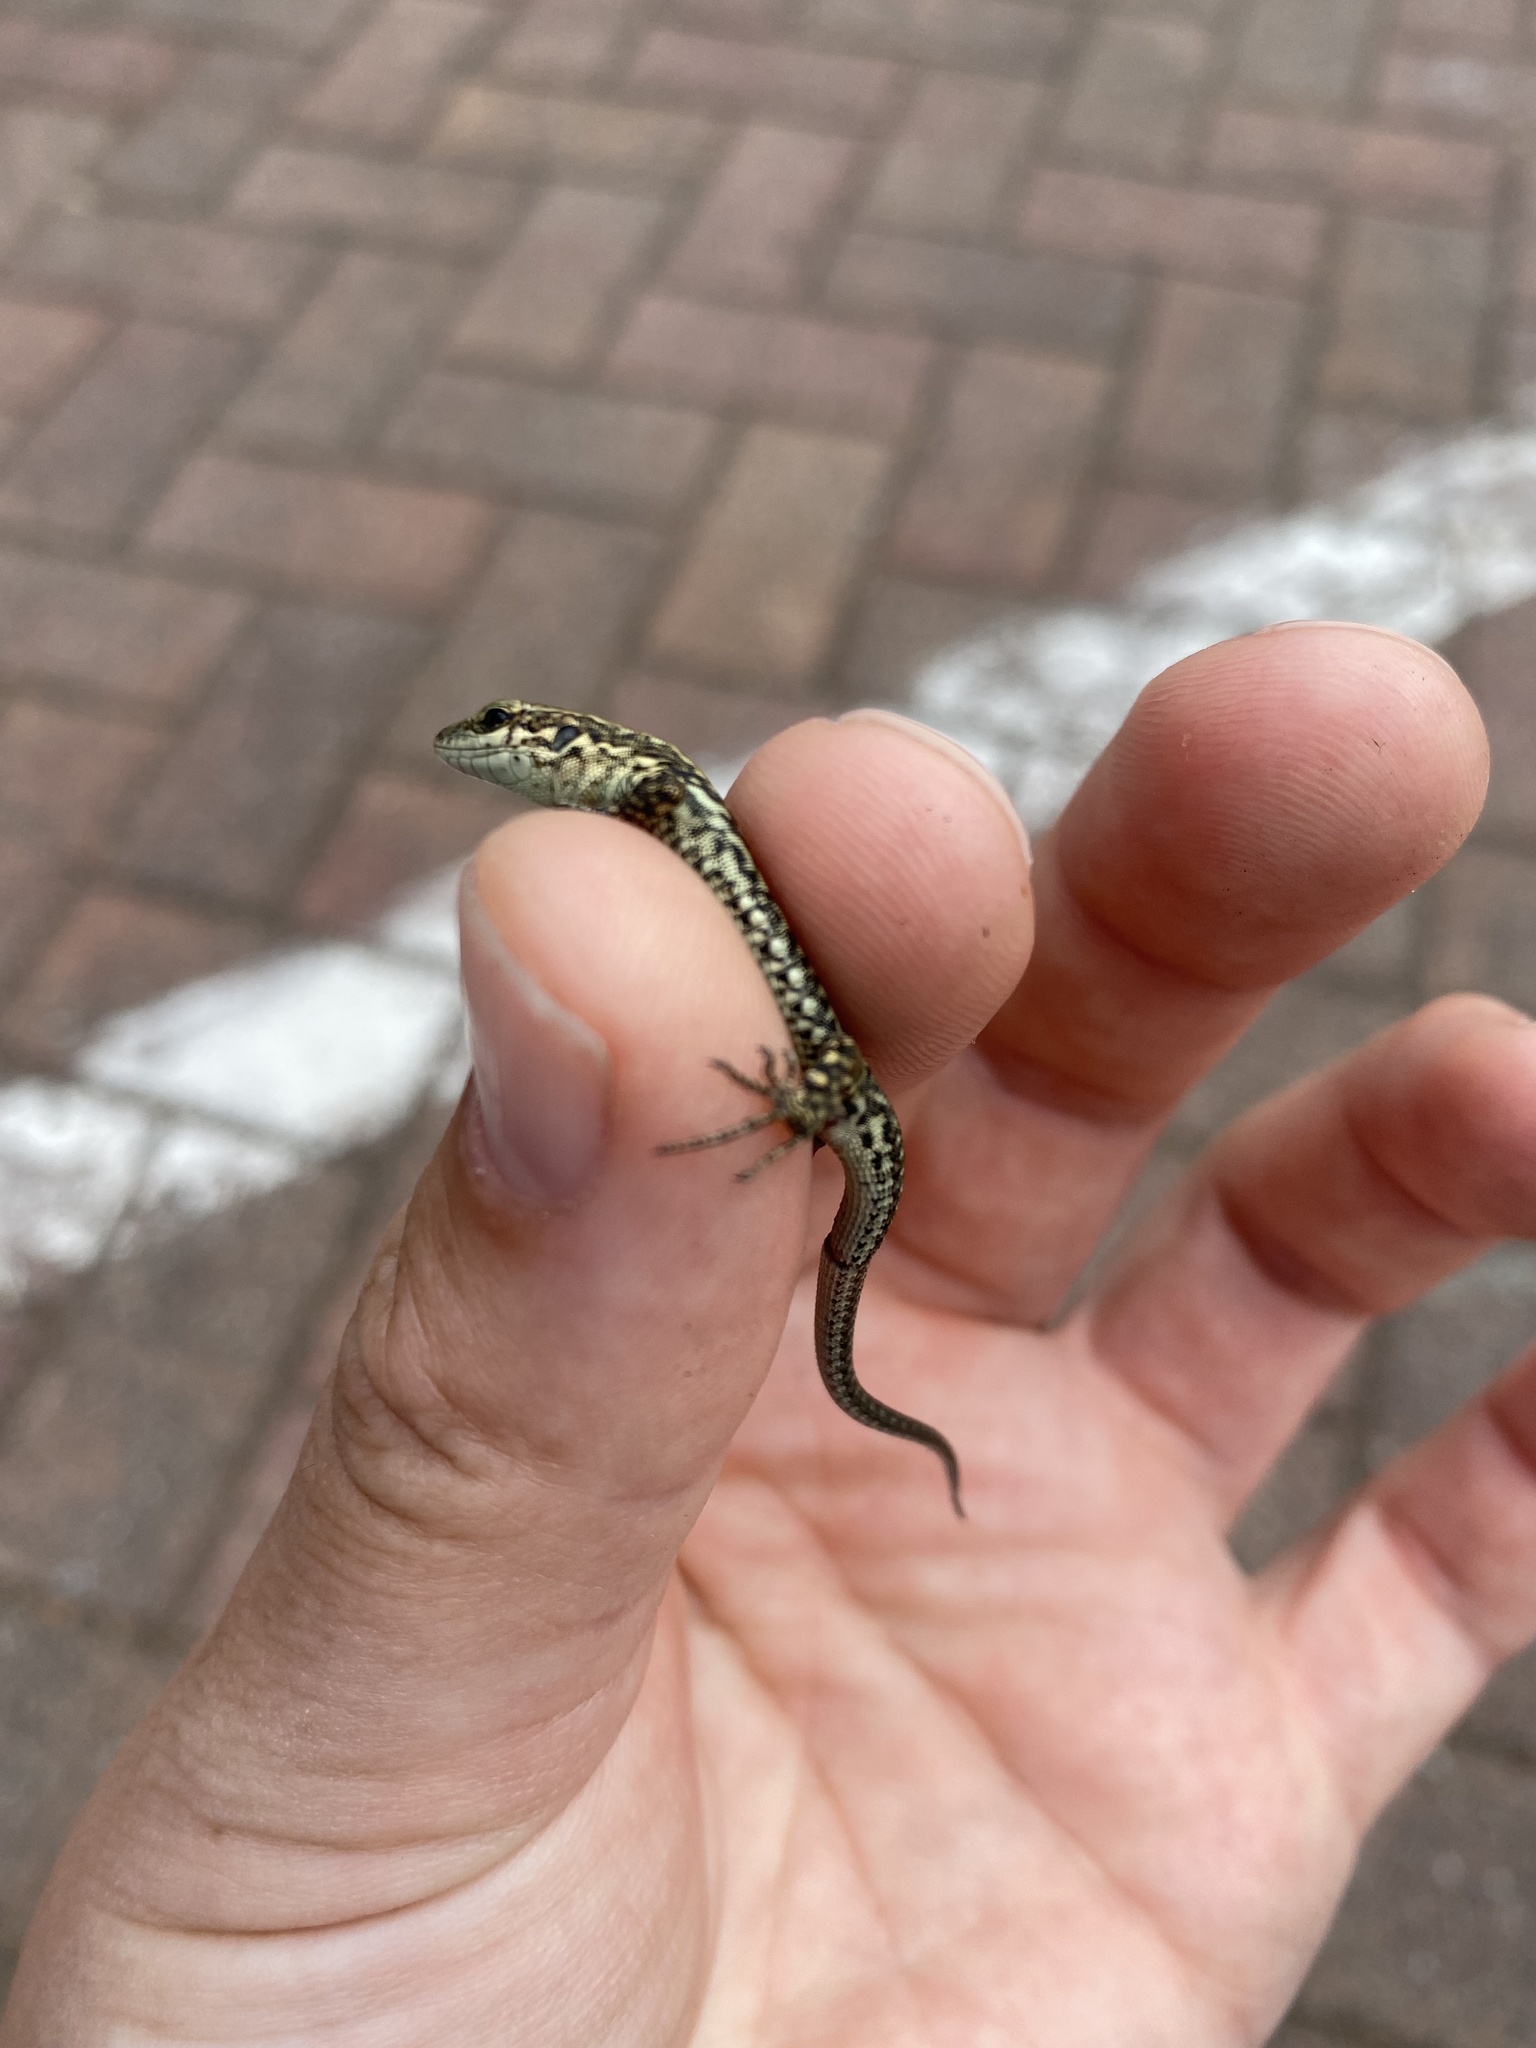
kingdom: Animalia
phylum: Chordata
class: Squamata
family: Lacertidae
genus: Podarcis
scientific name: Podarcis muralis
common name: Common wall lizard
